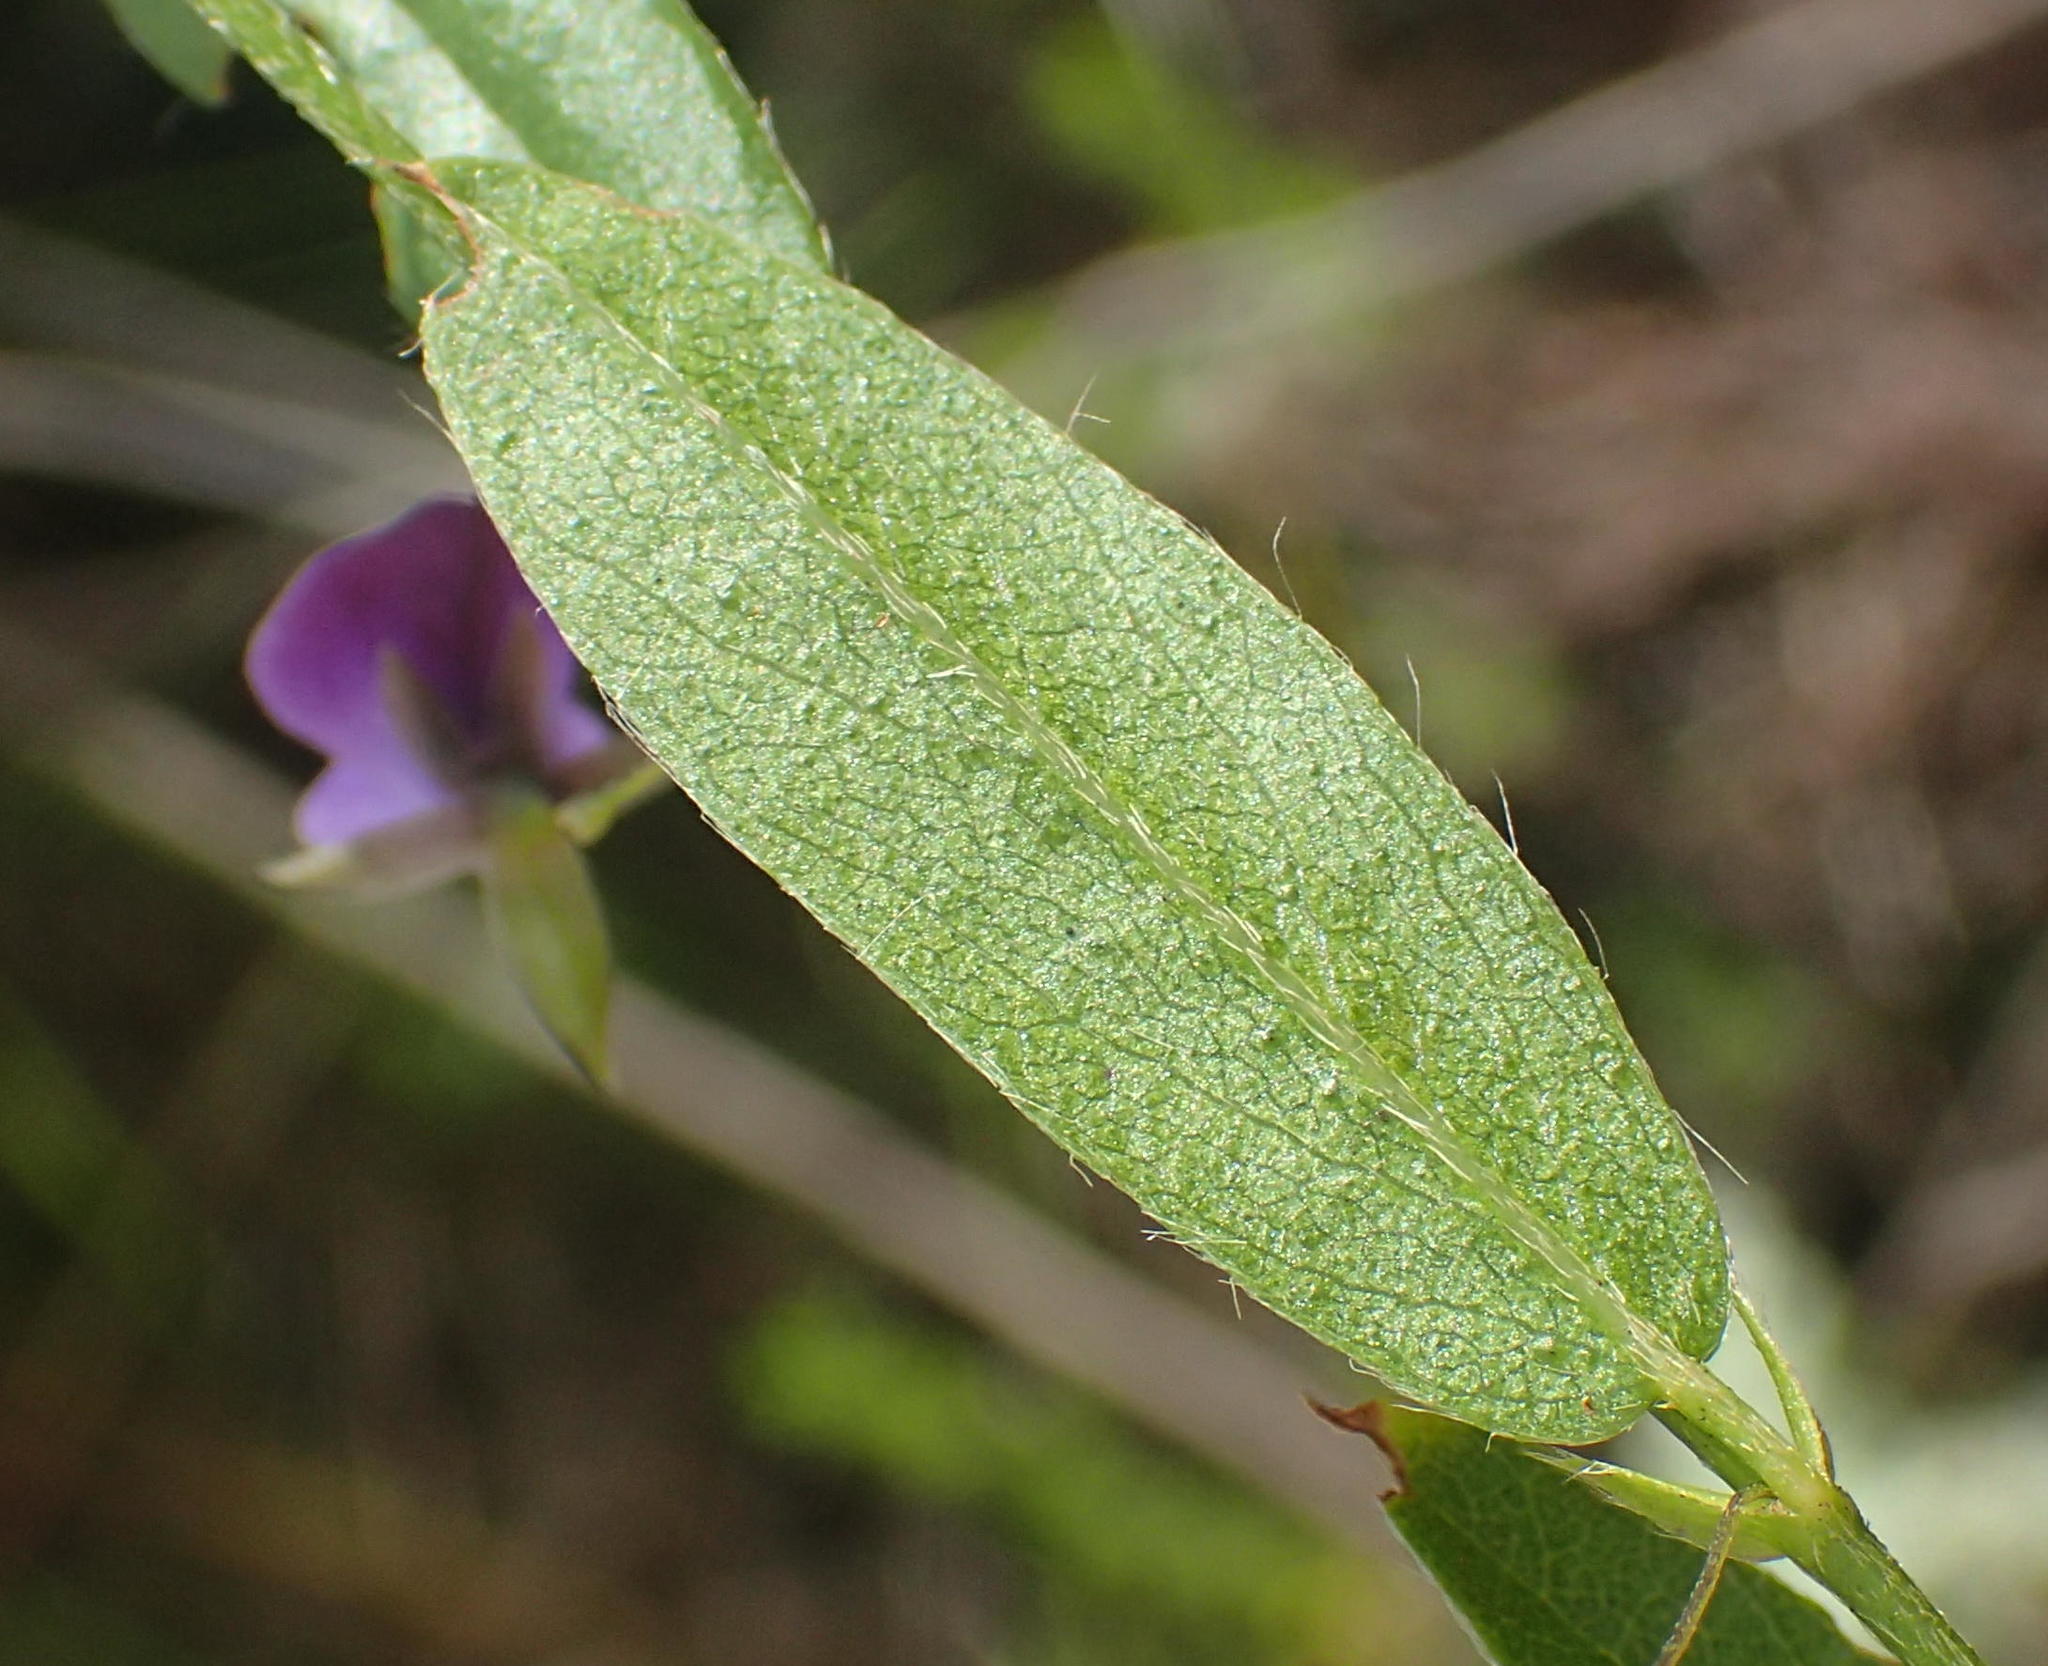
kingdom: Plantae
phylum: Tracheophyta
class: Magnoliopsida
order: Fabales
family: Fabaceae
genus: Psoralea
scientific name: Psoralea plauta
